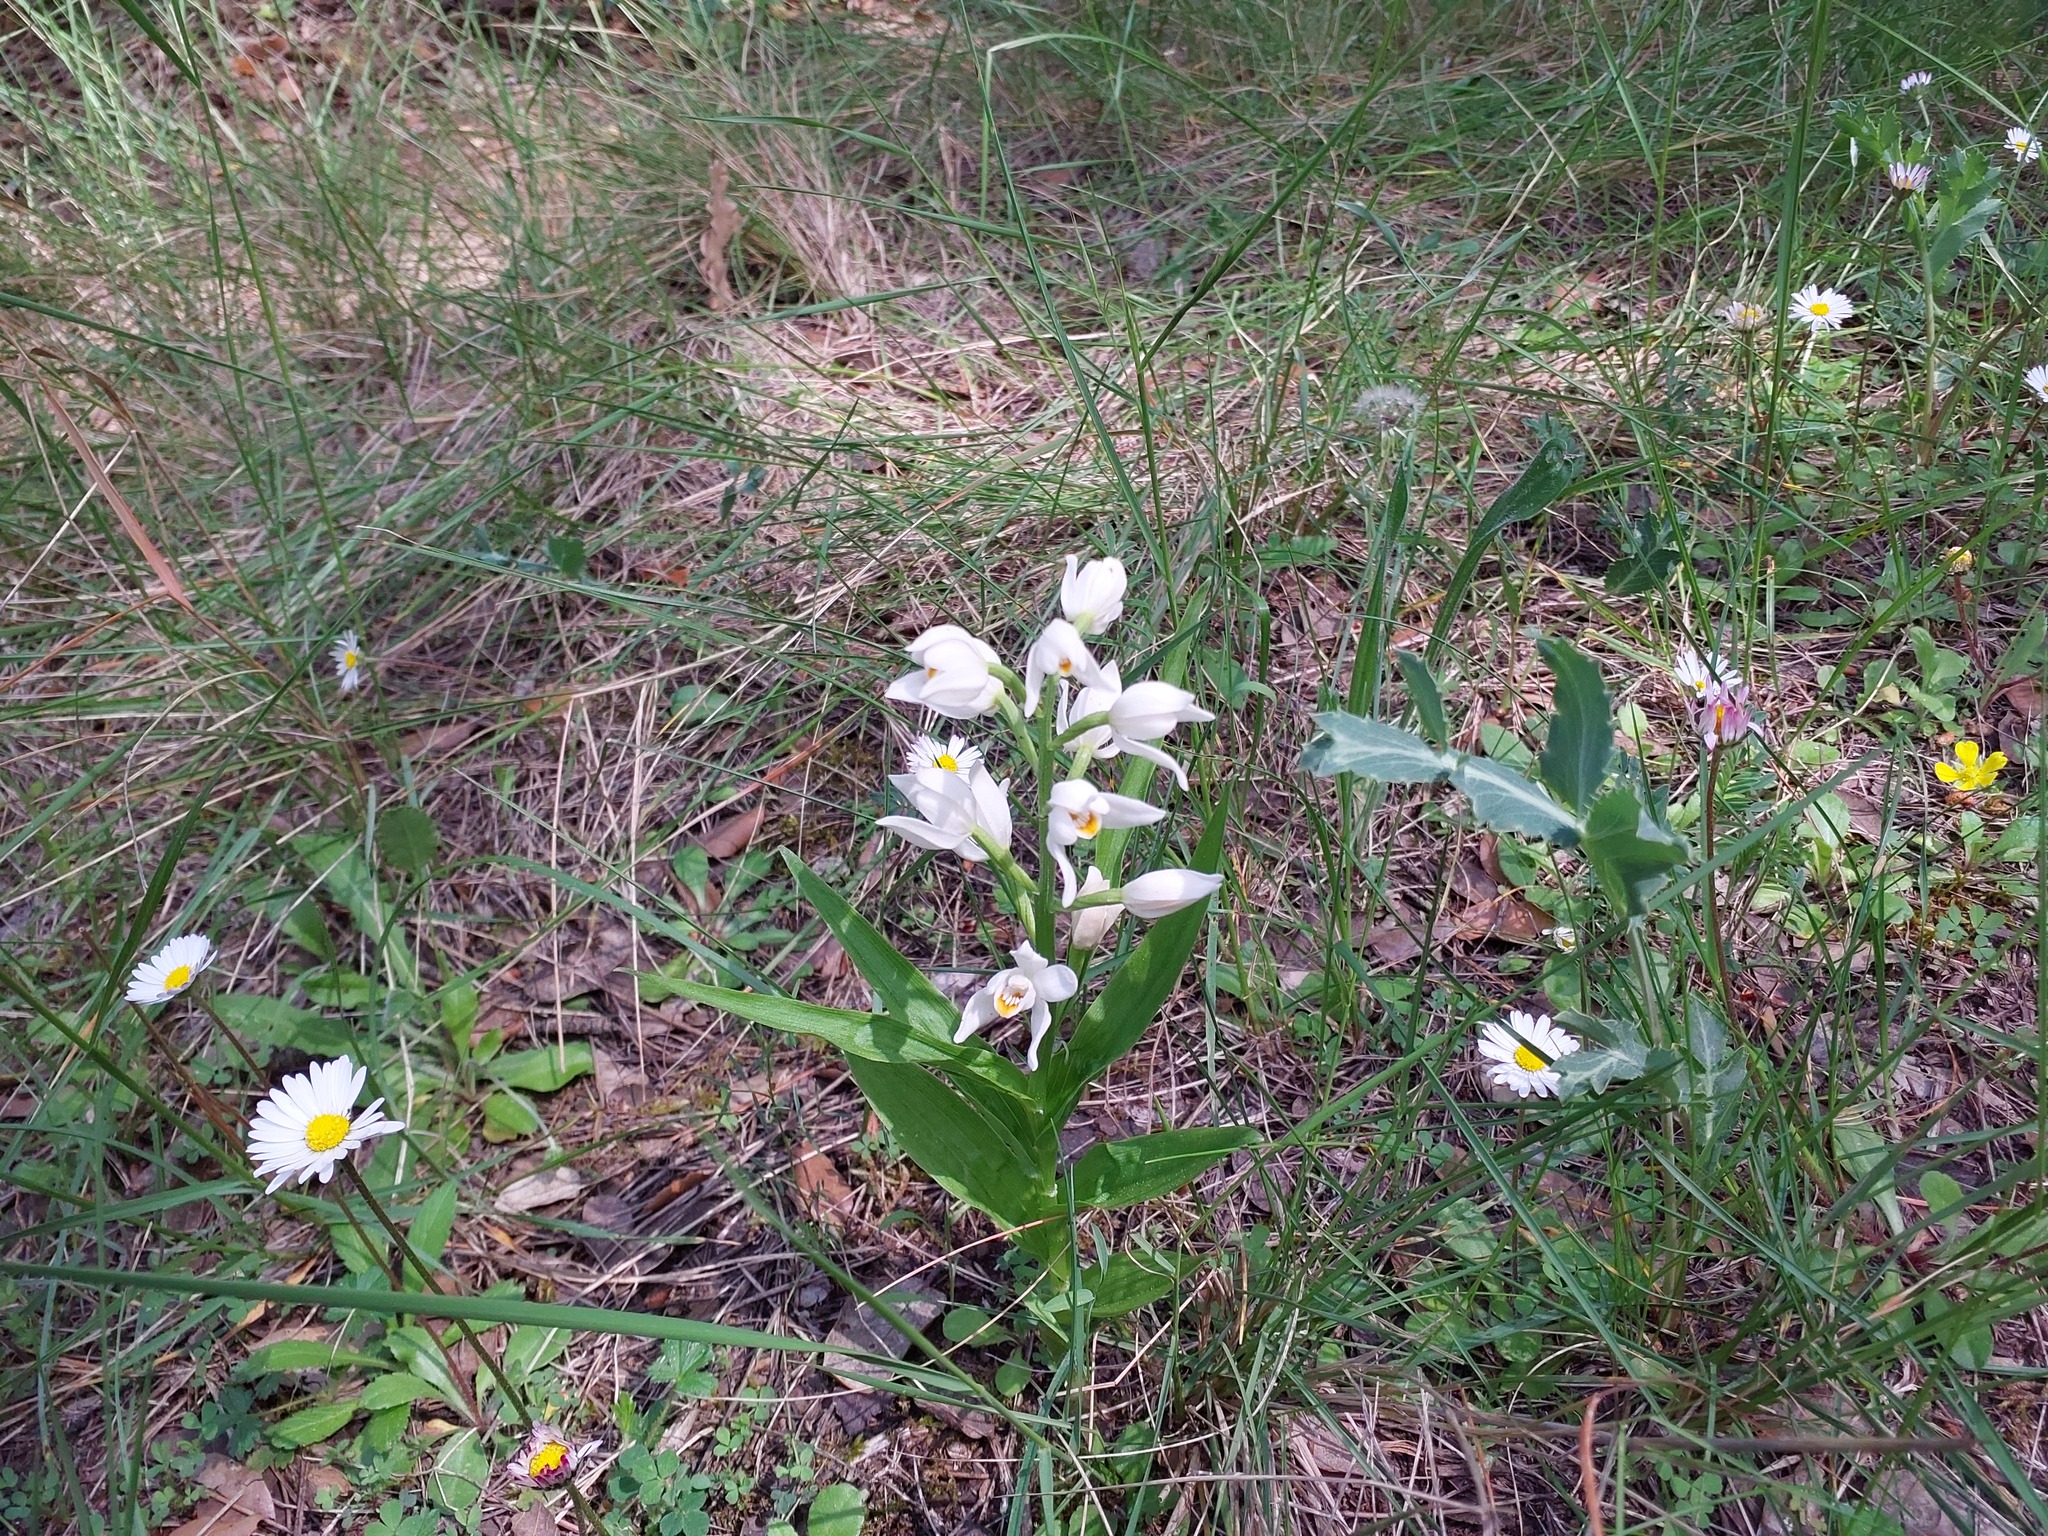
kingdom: Plantae
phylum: Tracheophyta
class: Liliopsida
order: Asparagales
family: Orchidaceae
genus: Cephalanthera
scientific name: Cephalanthera longifolia
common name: Narrow-leaved helleborine
